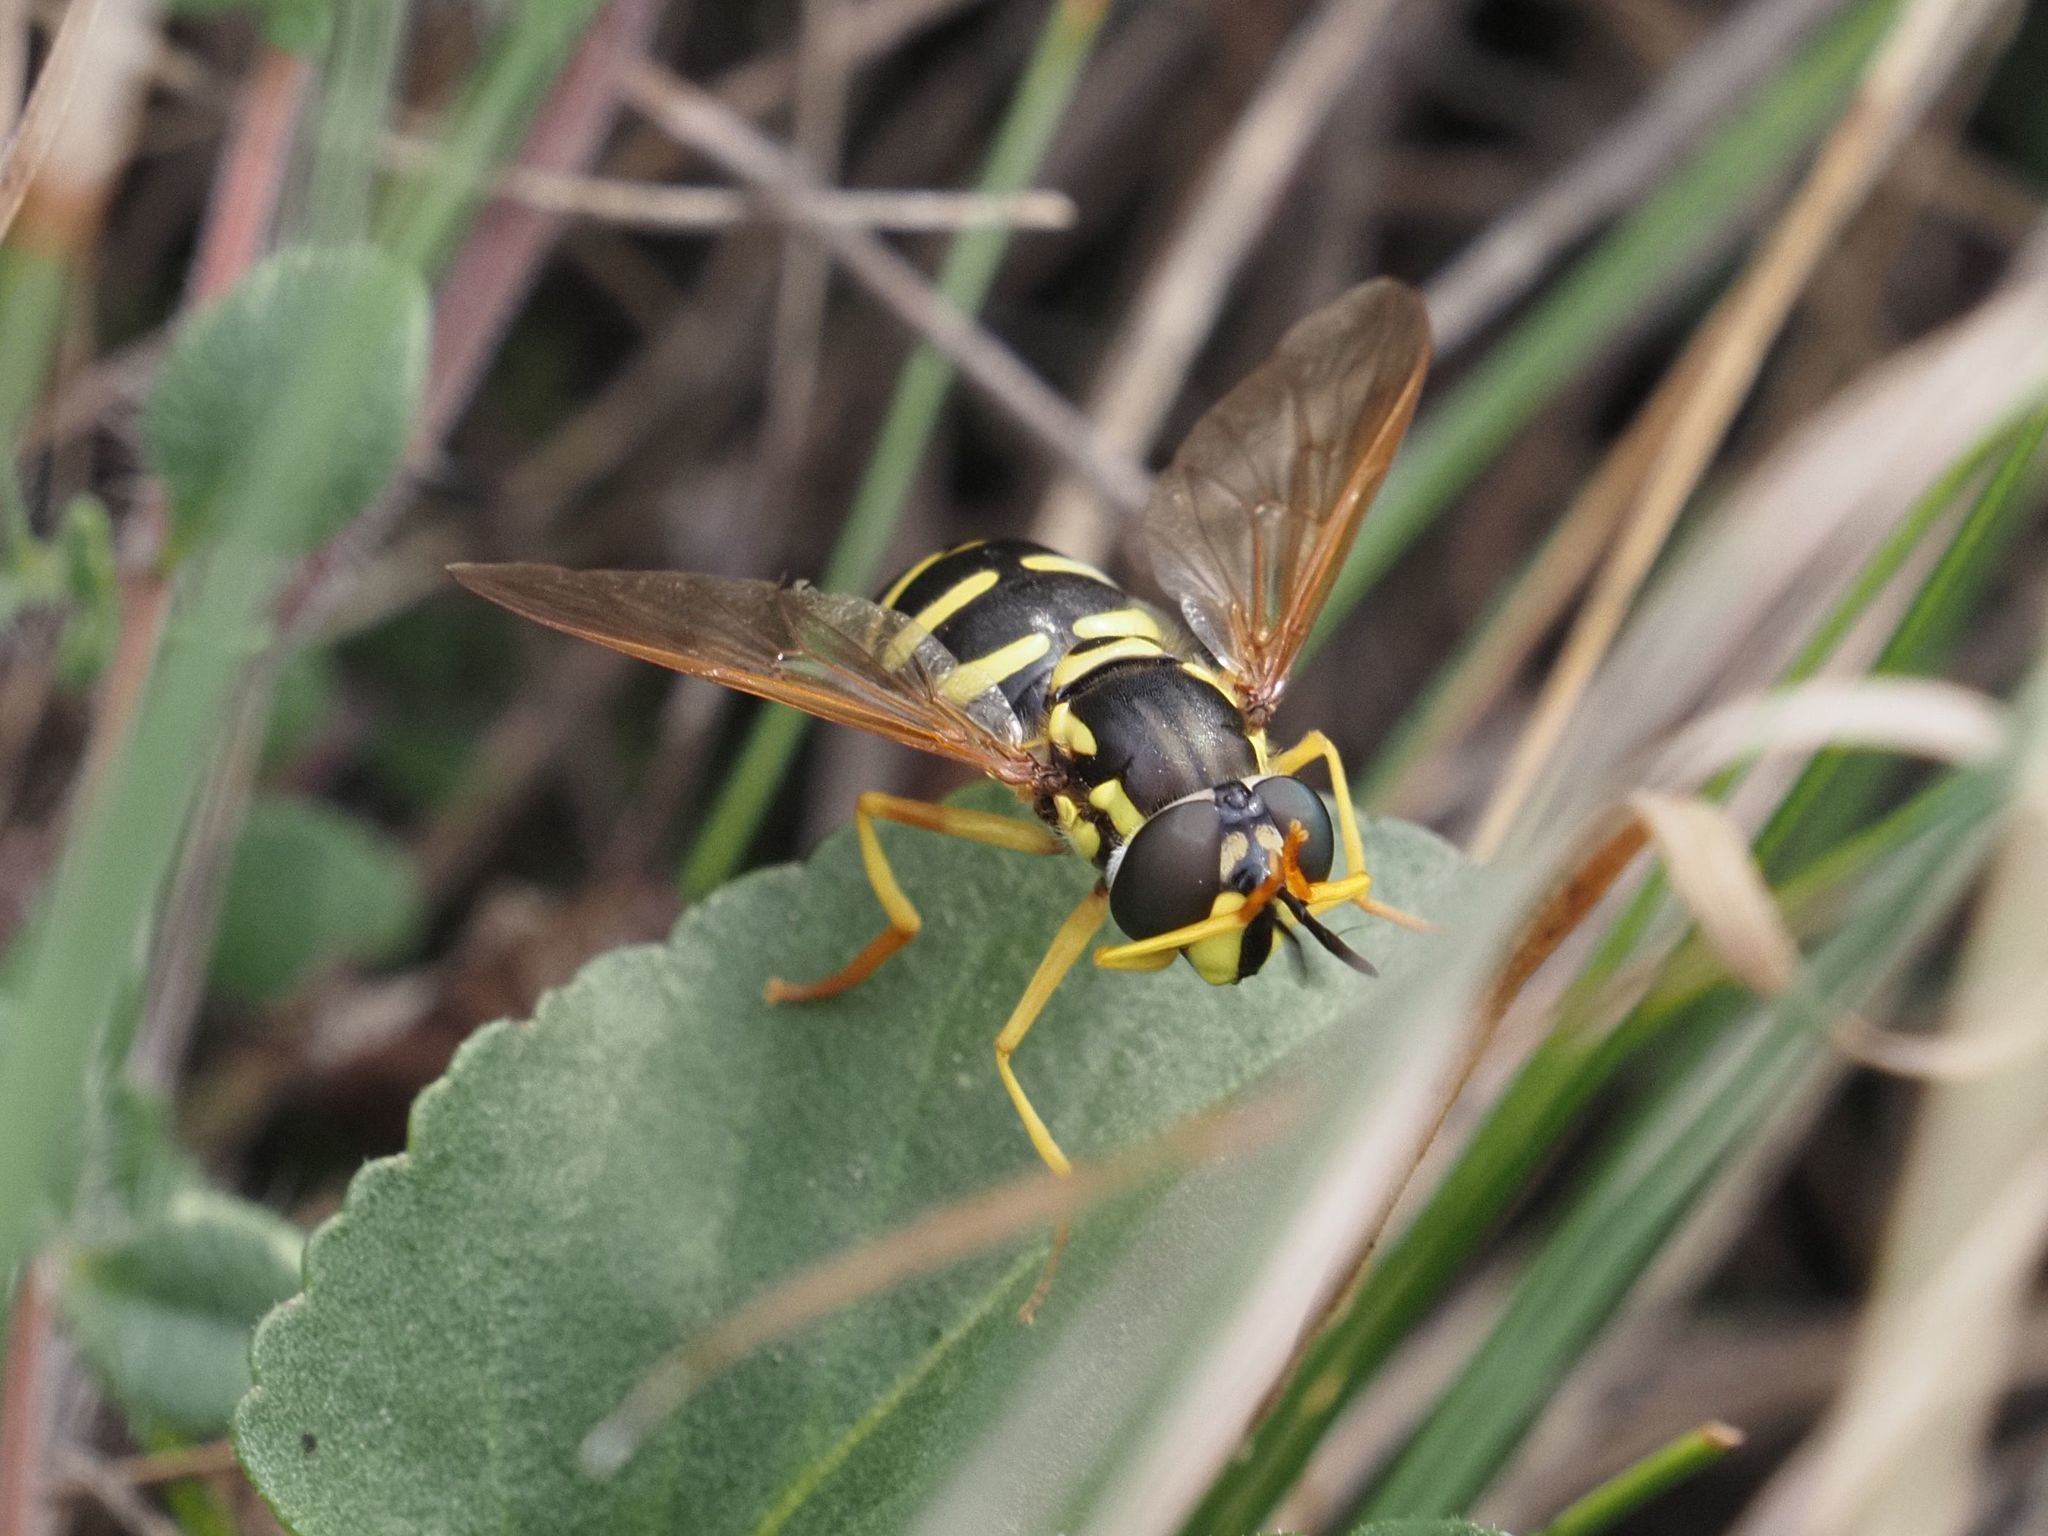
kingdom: Animalia
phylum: Arthropoda
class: Insecta
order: Diptera
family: Syrphidae
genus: Chrysotoxum
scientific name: Chrysotoxum elegans
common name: Zipperback
